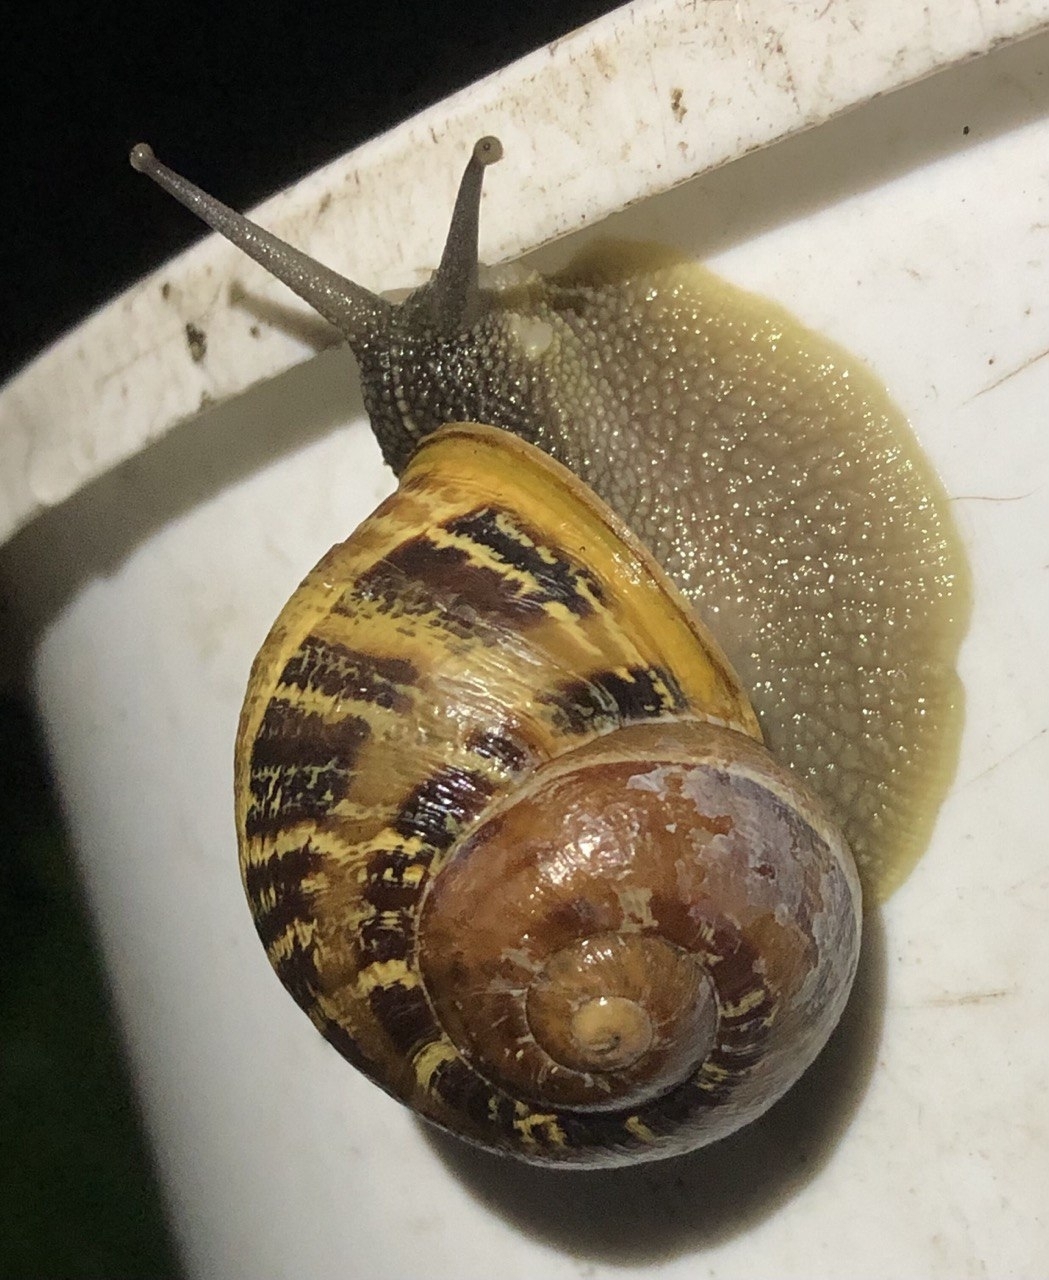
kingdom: Animalia
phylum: Mollusca
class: Gastropoda
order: Stylommatophora
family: Helicidae
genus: Cornu
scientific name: Cornu aspersum
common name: Brown garden snail
